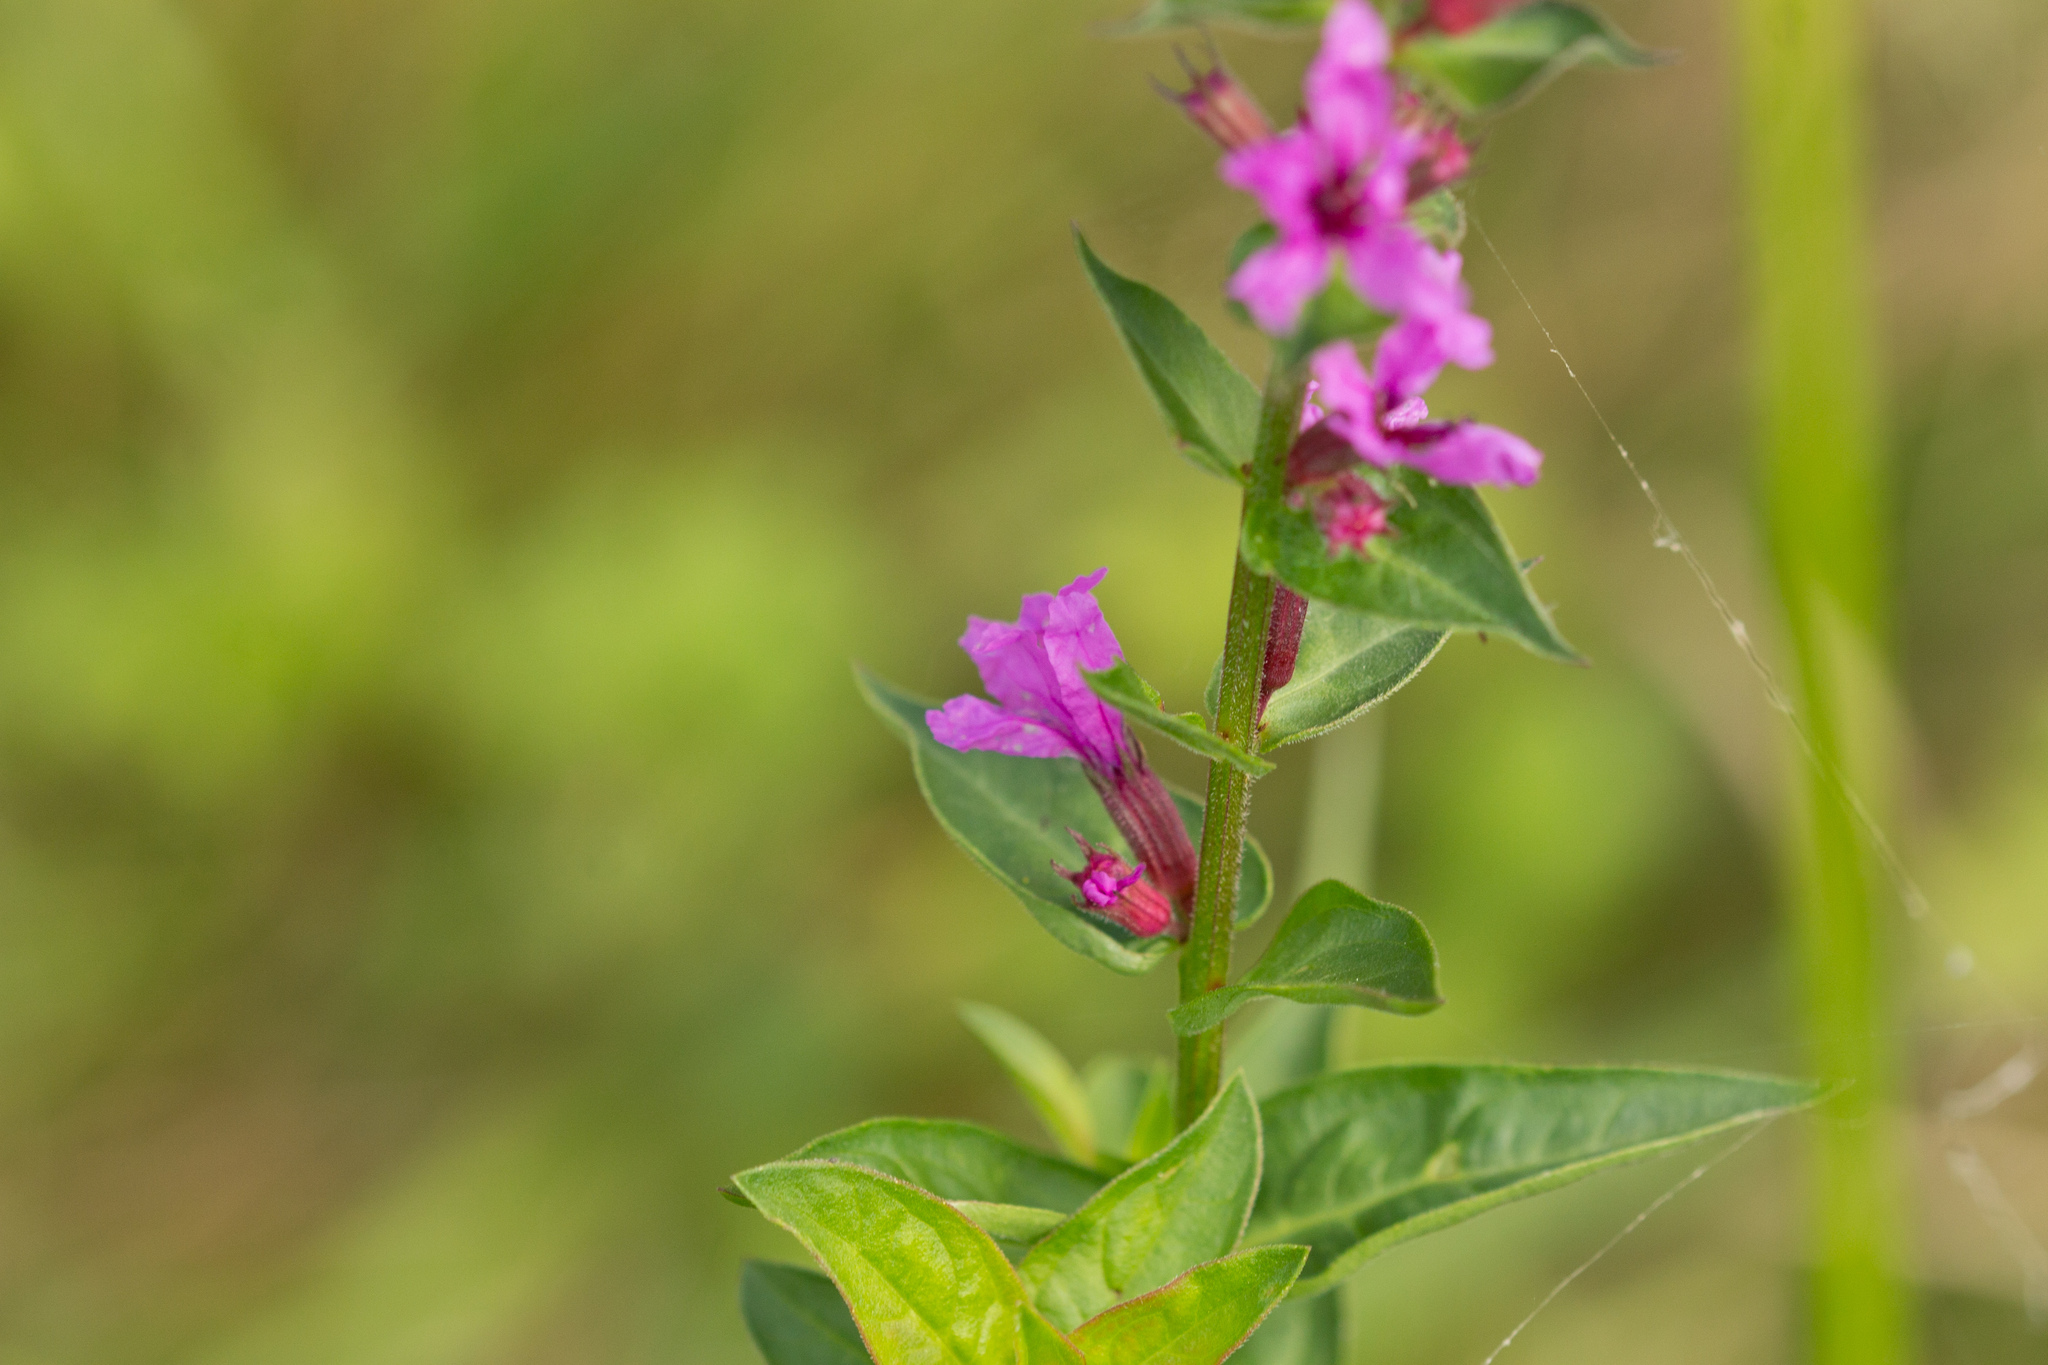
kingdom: Plantae
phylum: Tracheophyta
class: Magnoliopsida
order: Myrtales
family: Lythraceae
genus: Lythrum
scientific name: Lythrum salicaria
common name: Purple loosestrife
